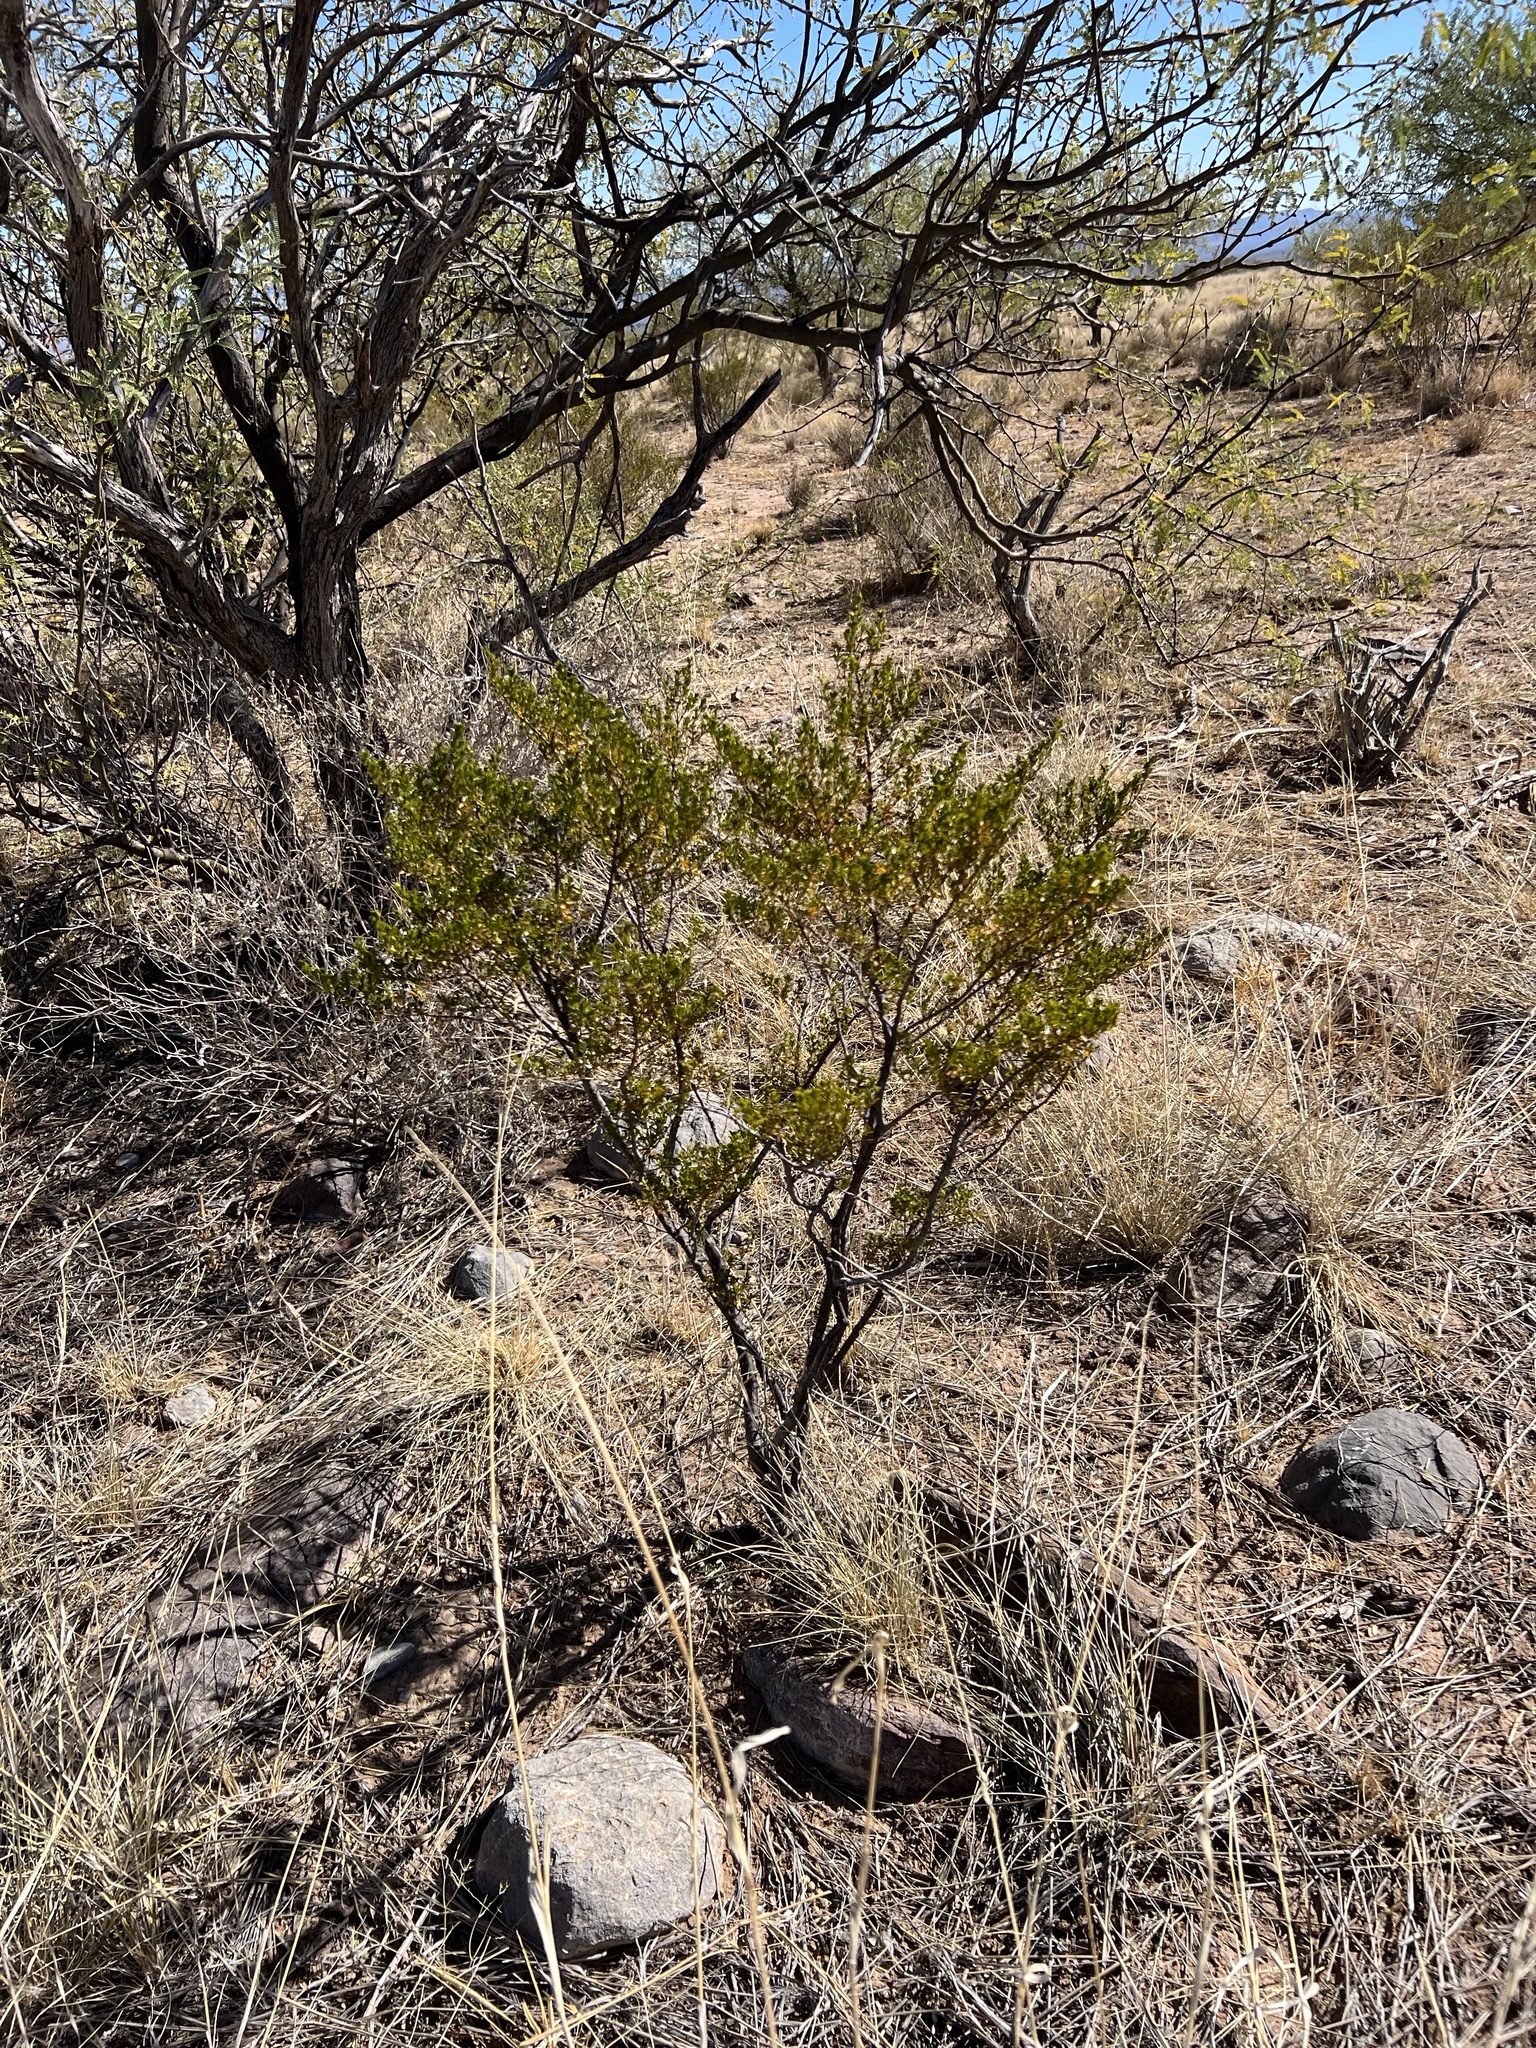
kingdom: Plantae
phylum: Tracheophyta
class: Magnoliopsida
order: Zygophyllales
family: Zygophyllaceae
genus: Larrea
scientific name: Larrea tridentata
